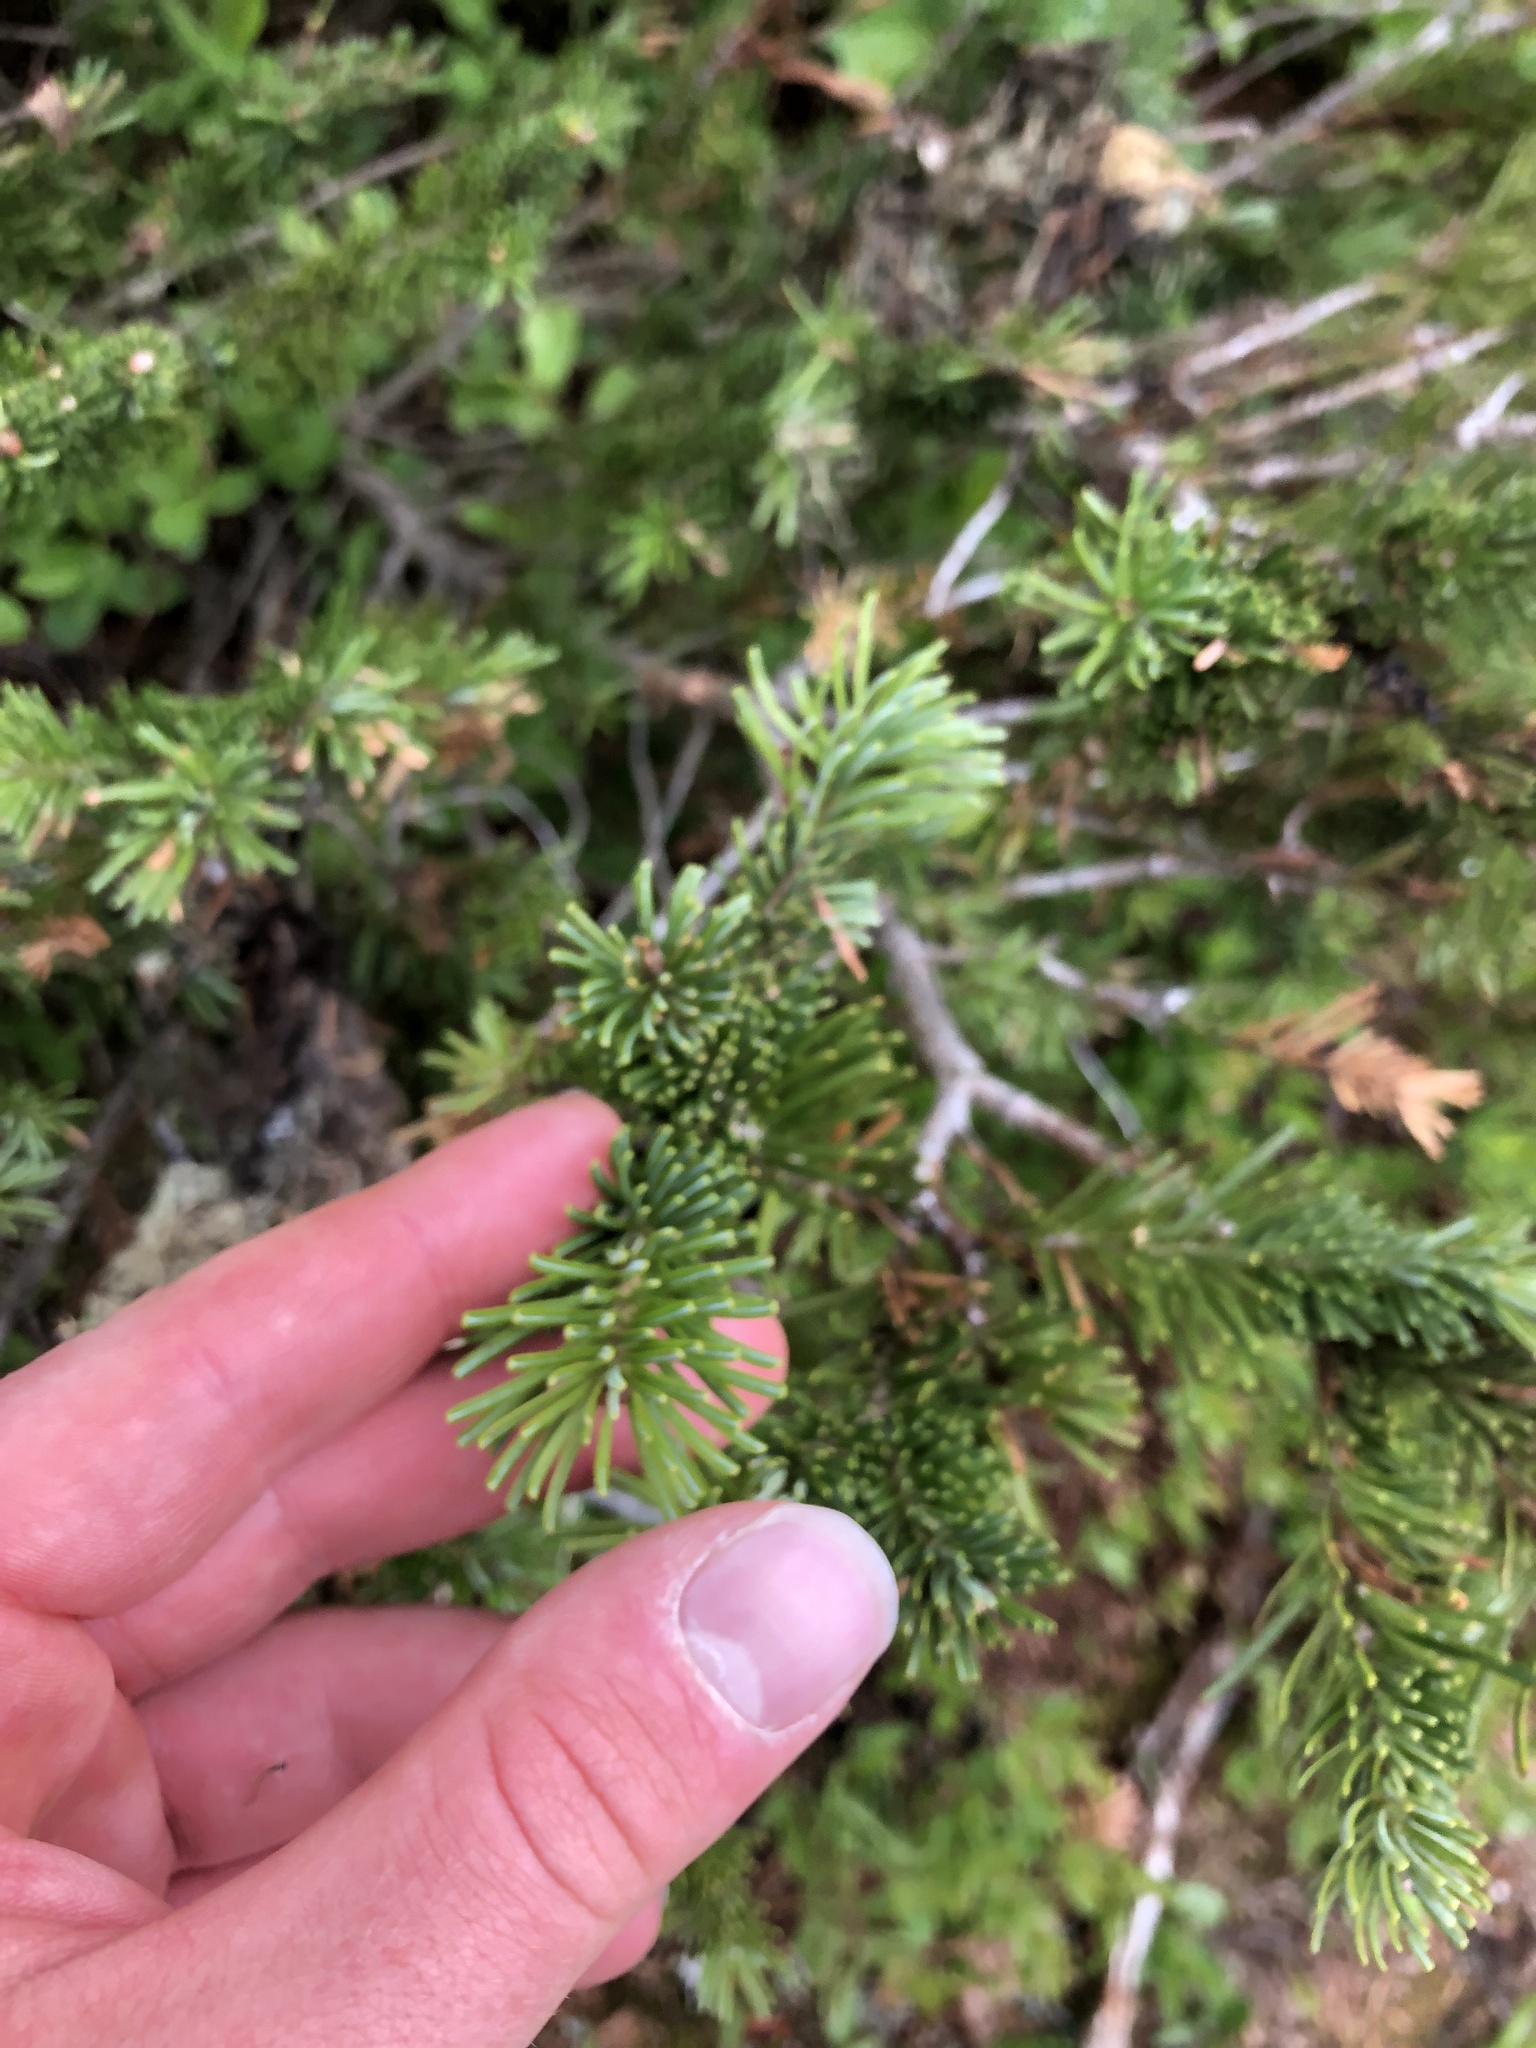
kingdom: Plantae
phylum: Tracheophyta
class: Pinopsida
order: Pinales
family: Pinaceae
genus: Abies
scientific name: Abies lasiocarpa
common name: Subalpine fir
